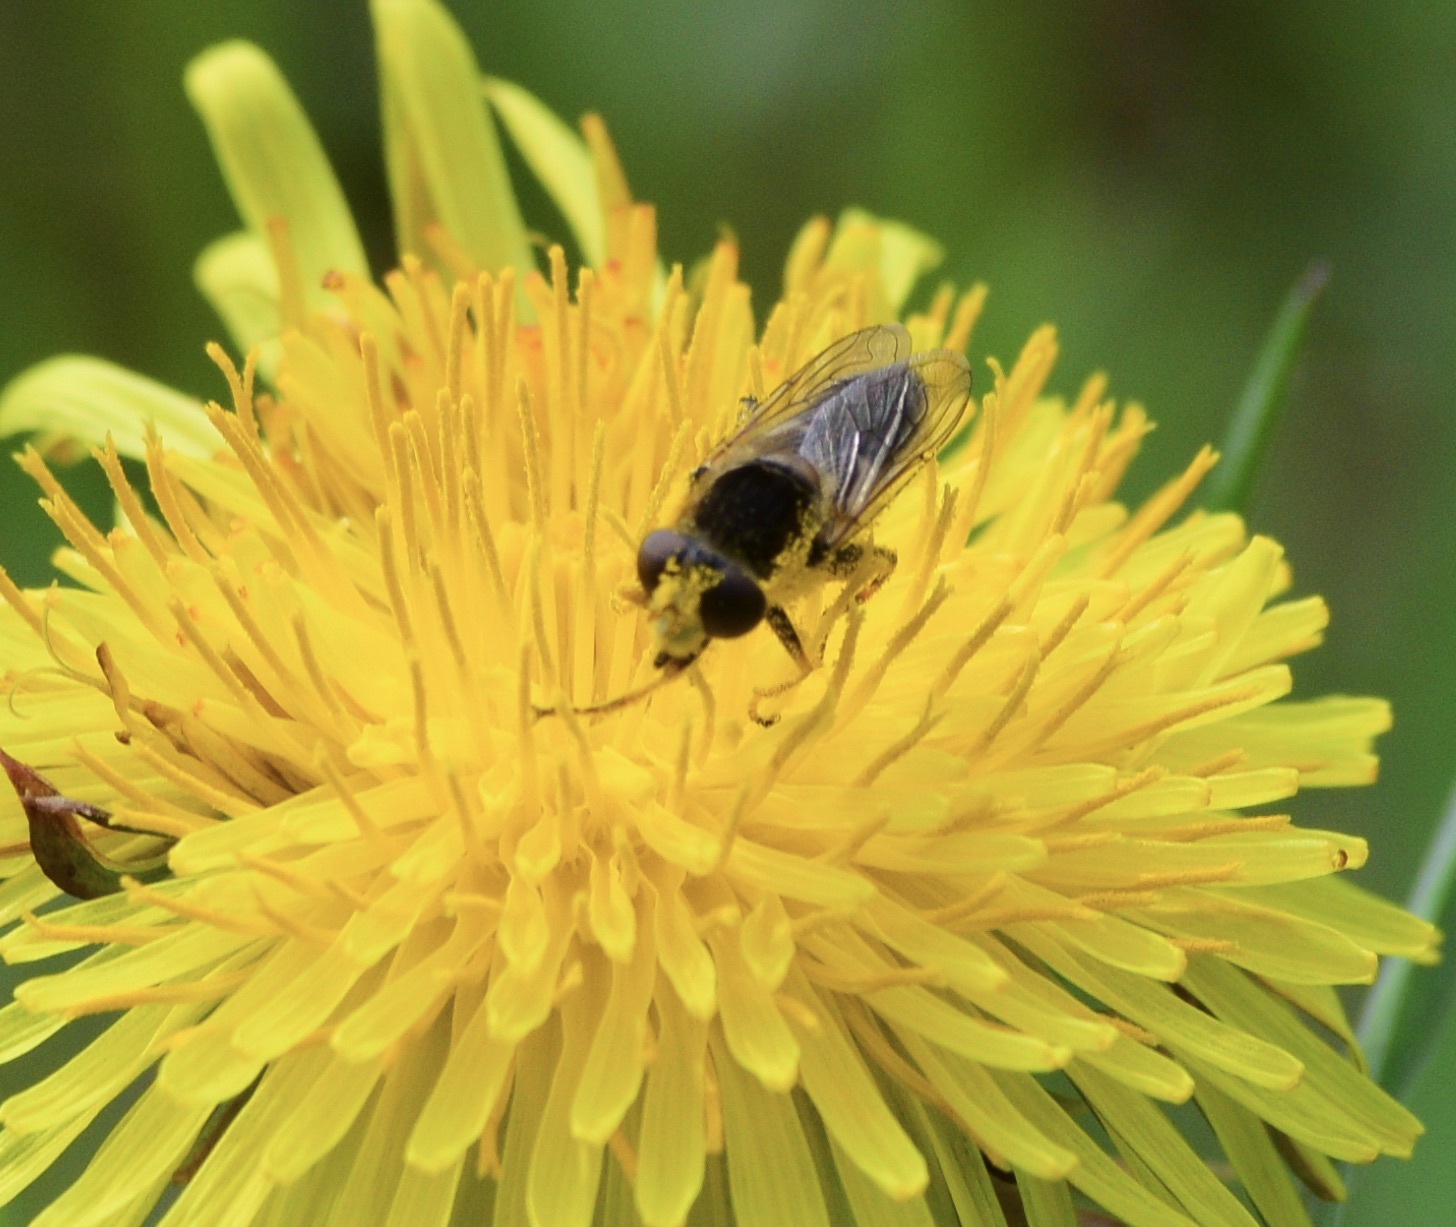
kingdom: Animalia
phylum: Arthropoda
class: Insecta
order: Diptera
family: Syrphidae
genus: Anasimyia
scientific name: Anasimyia bilinearis
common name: Two-lined swamp fly
